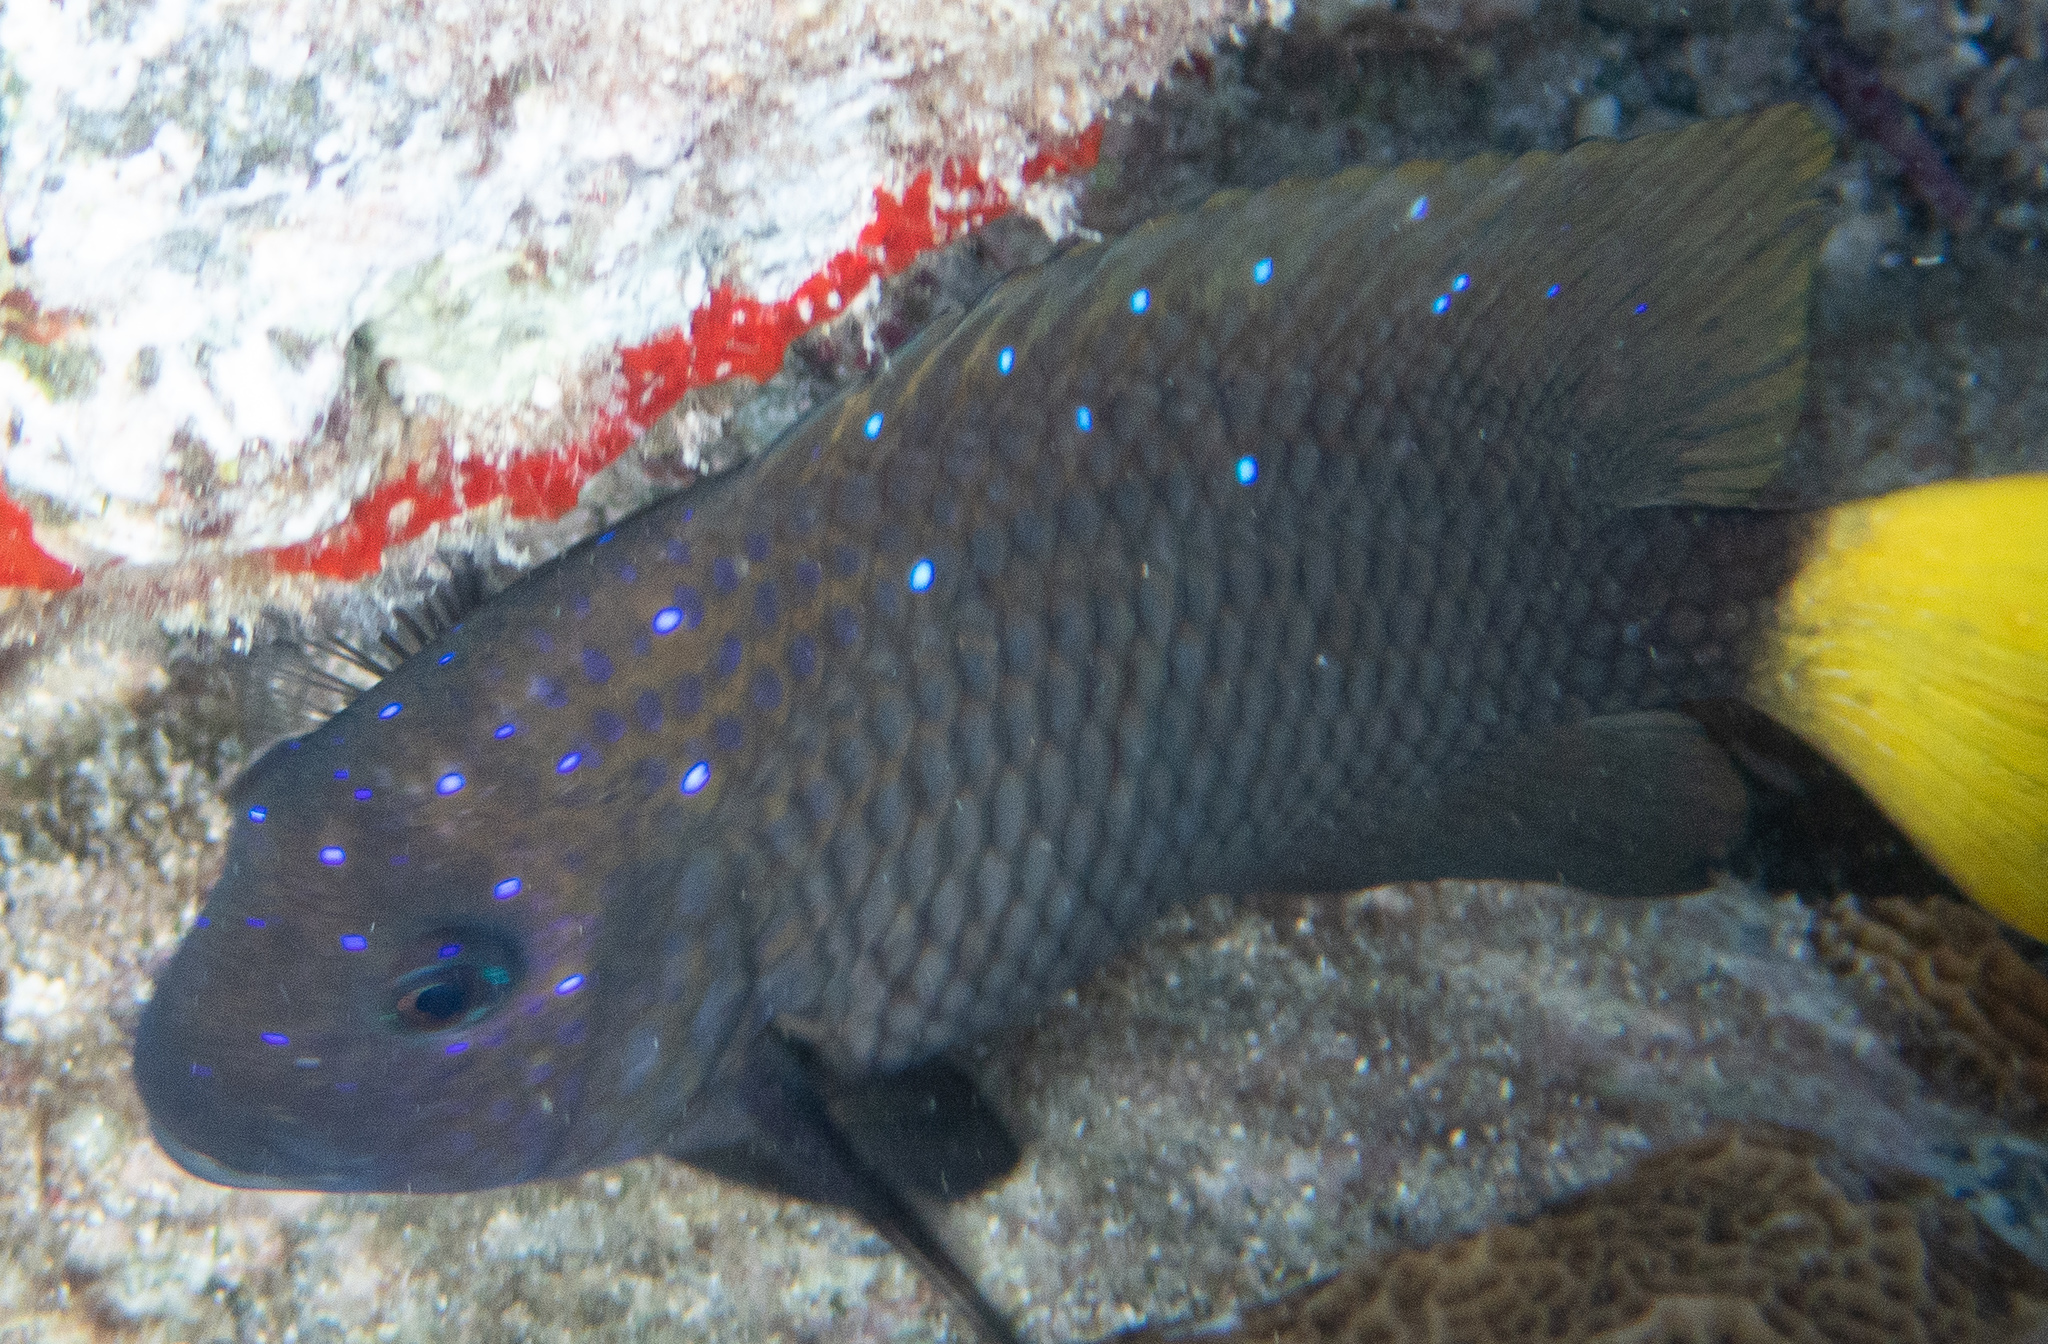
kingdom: Animalia
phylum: Chordata
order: Perciformes
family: Pomacentridae
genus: Microspathodon
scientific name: Microspathodon chrysurus
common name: Yellowtail damselfish
